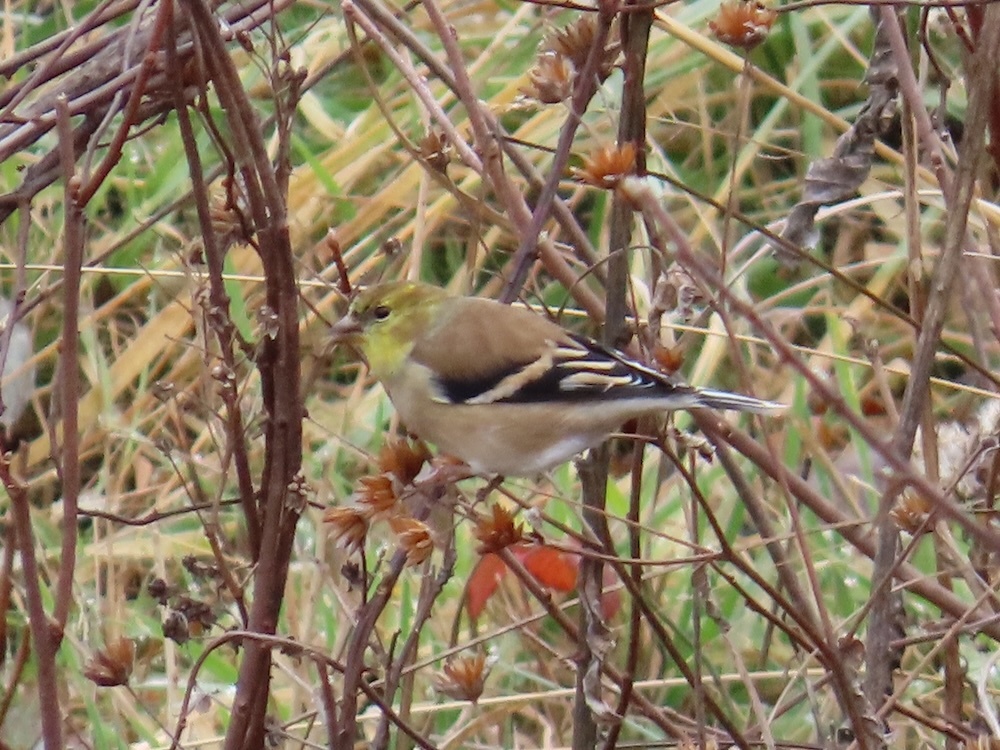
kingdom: Animalia
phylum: Chordata
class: Aves
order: Passeriformes
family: Fringillidae
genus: Spinus
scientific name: Spinus tristis
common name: American goldfinch
